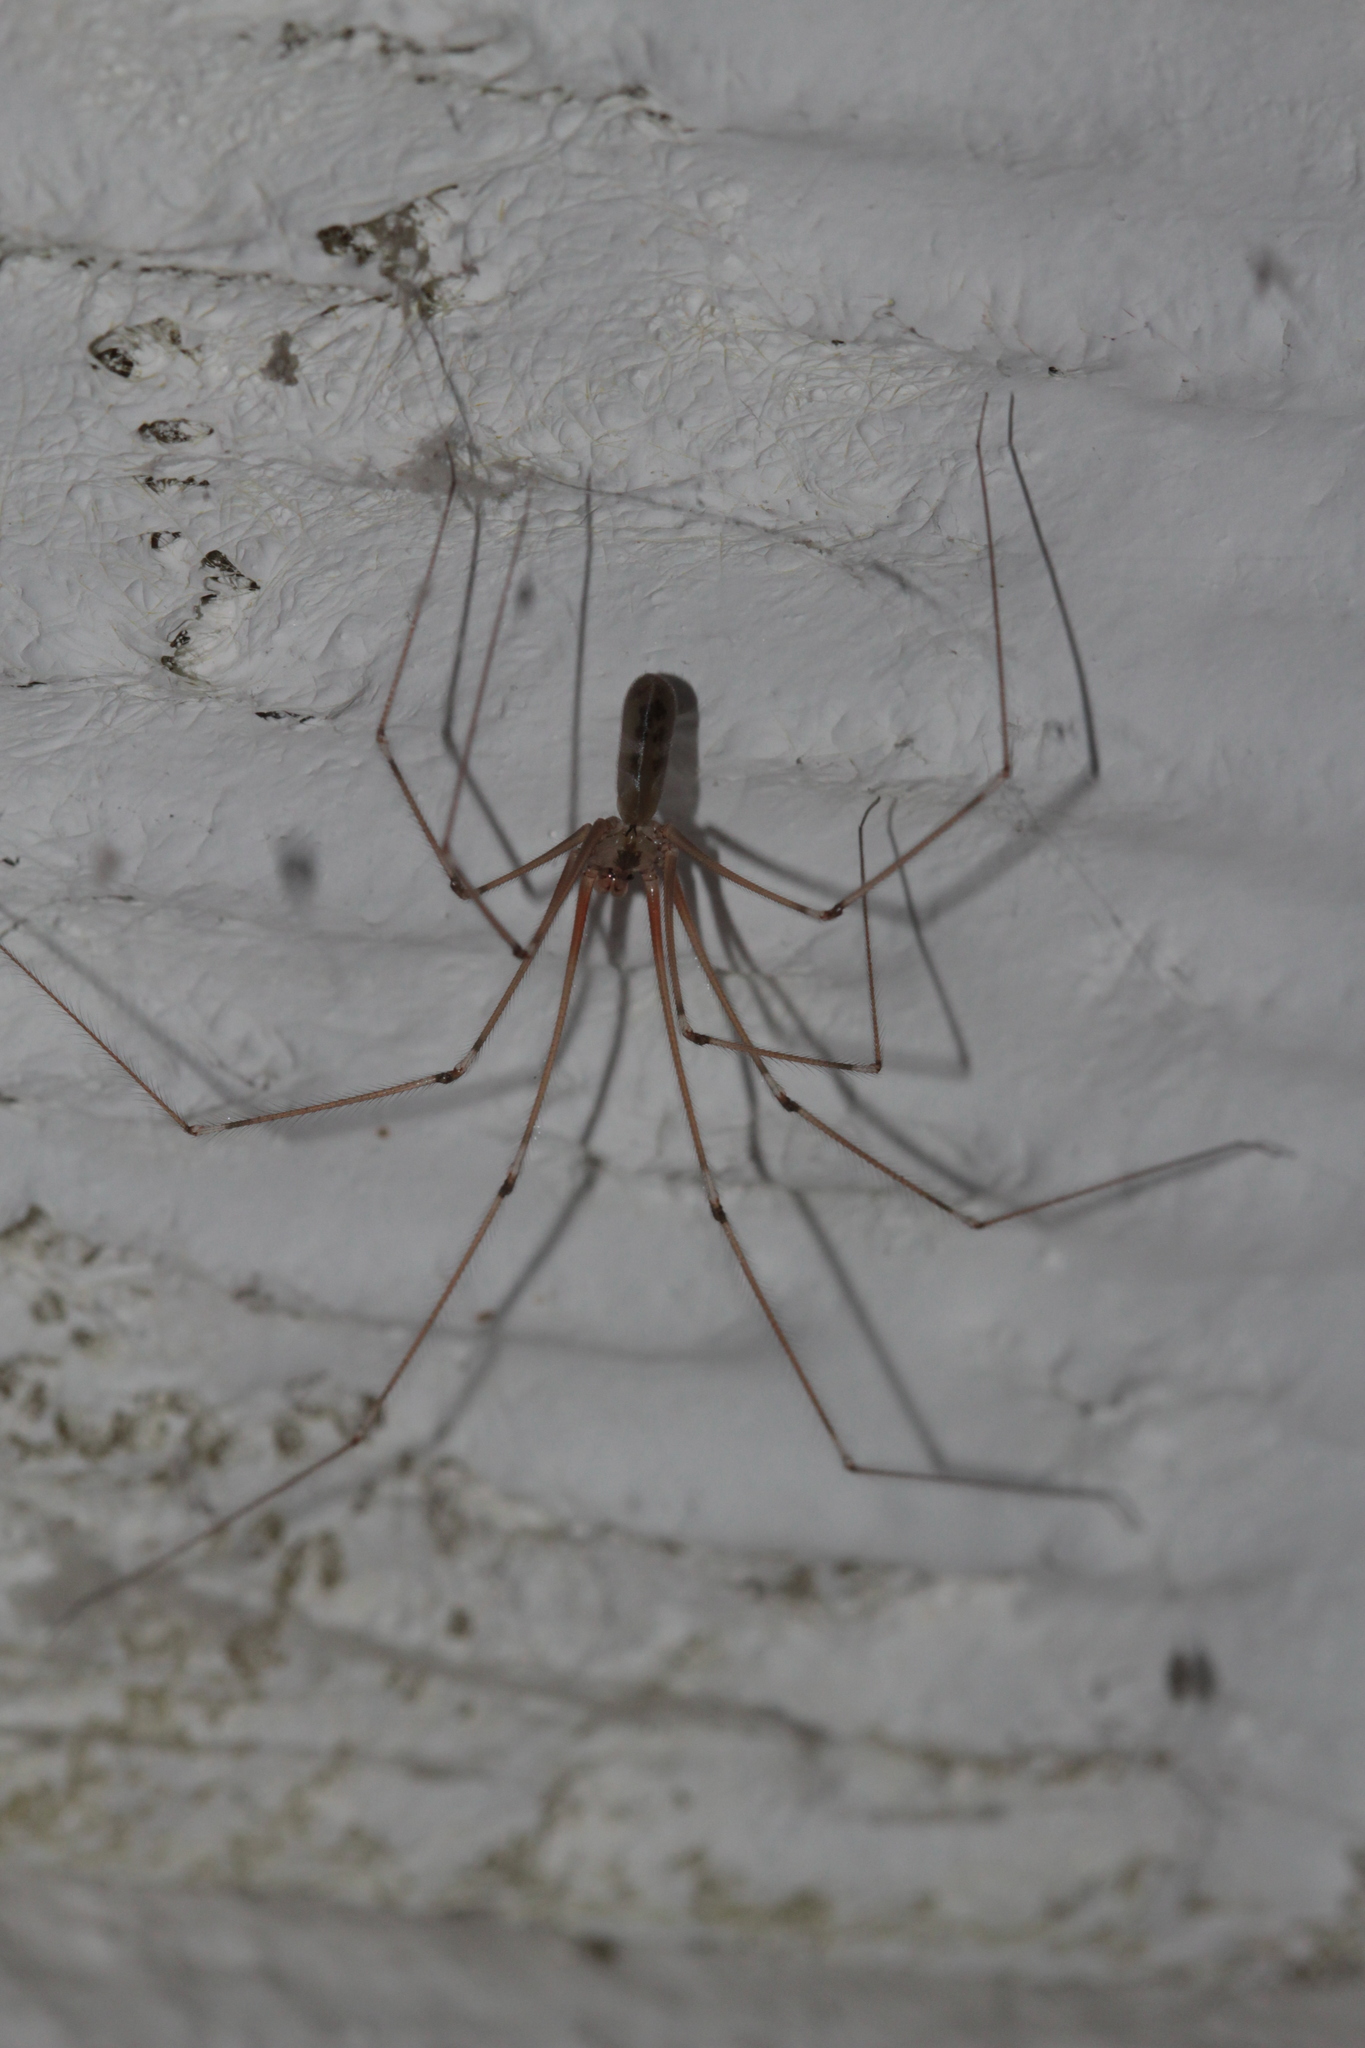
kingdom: Animalia
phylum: Arthropoda
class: Arachnida
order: Araneae
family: Pholcidae
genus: Pholcus
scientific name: Pholcus phalangioides
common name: Longbodied cellar spider
